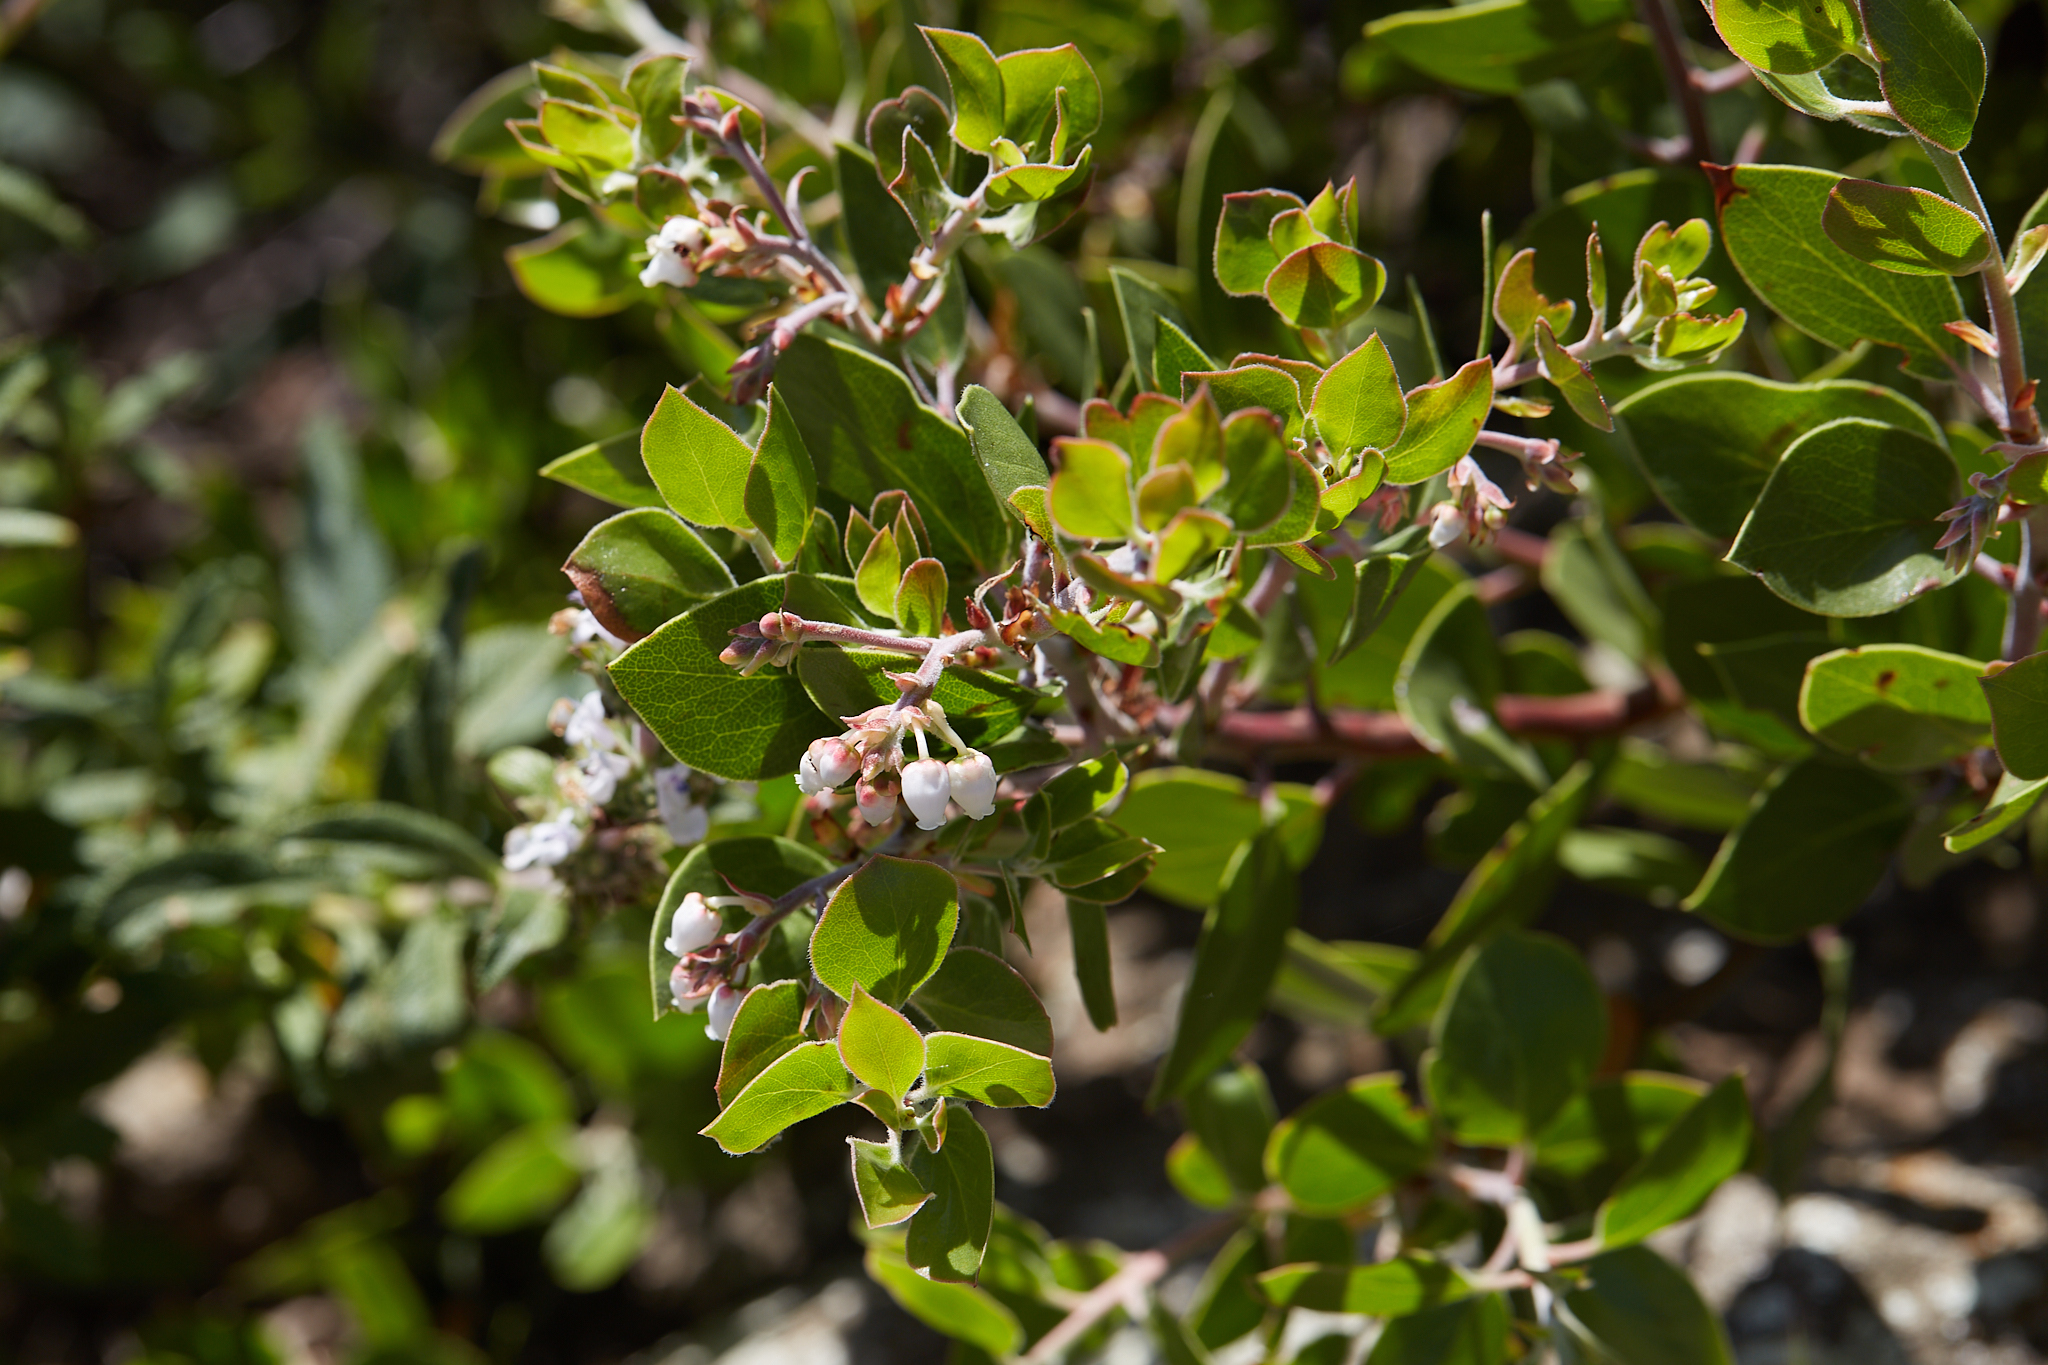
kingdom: Plantae
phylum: Tracheophyta
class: Magnoliopsida
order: Ericales
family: Ericaceae
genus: Arctostaphylos
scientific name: Arctostaphylos manzanita
